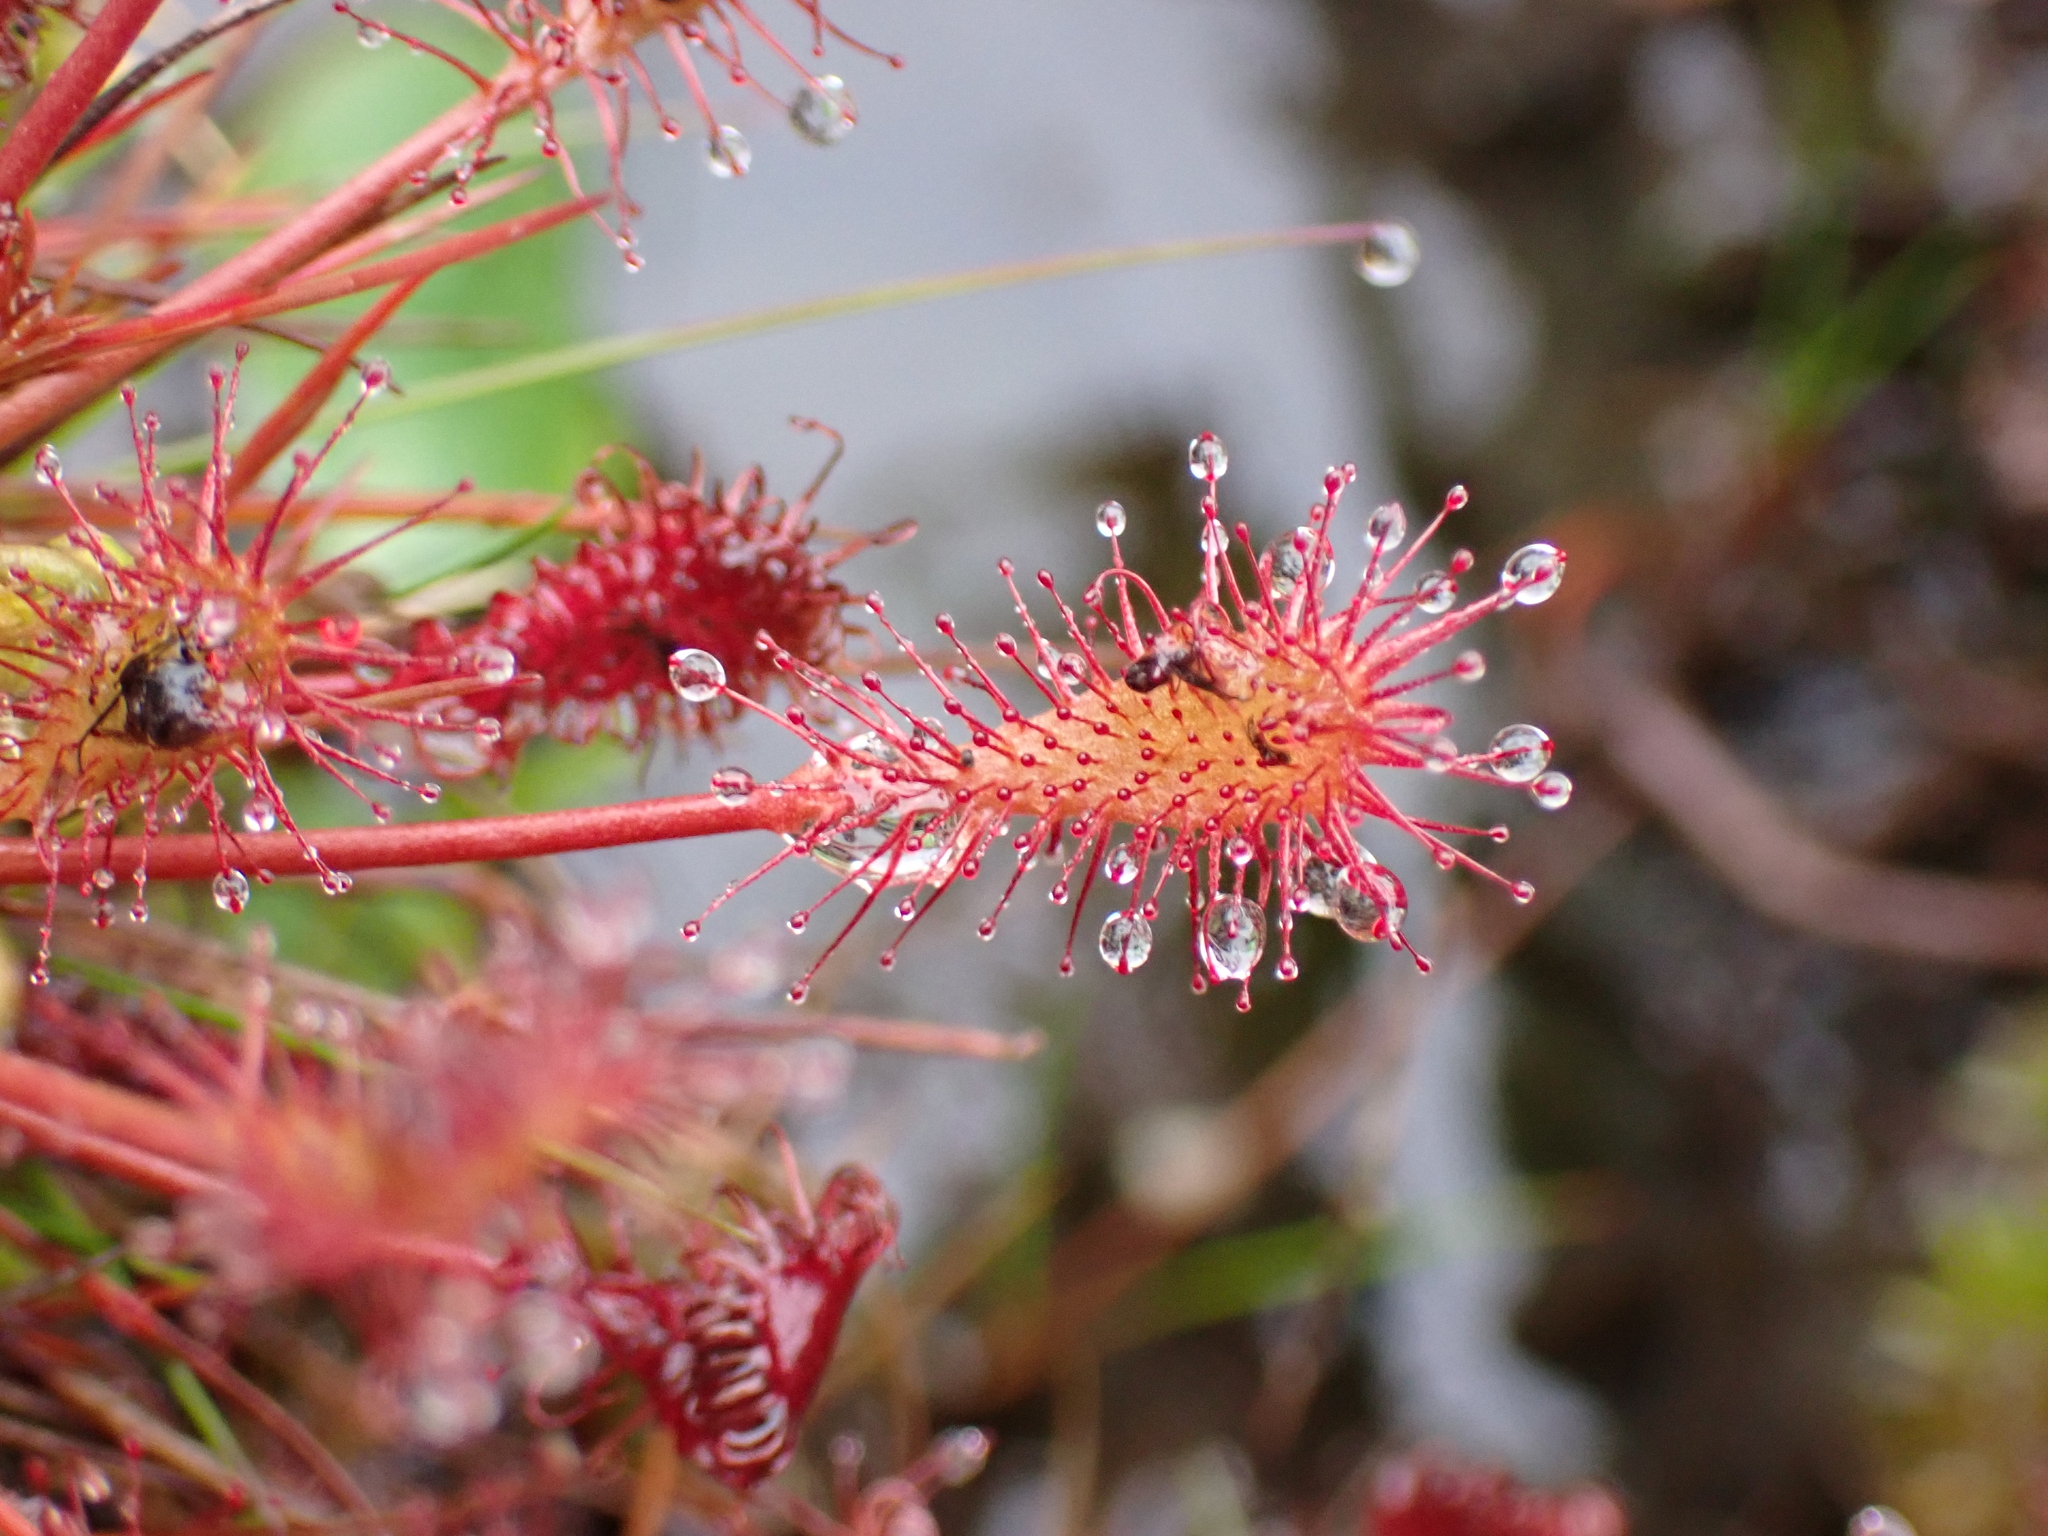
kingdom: Plantae
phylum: Tracheophyta
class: Magnoliopsida
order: Caryophyllales
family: Droseraceae
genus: Drosera
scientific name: Drosera intermedia
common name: Oblong-leaved sundew
